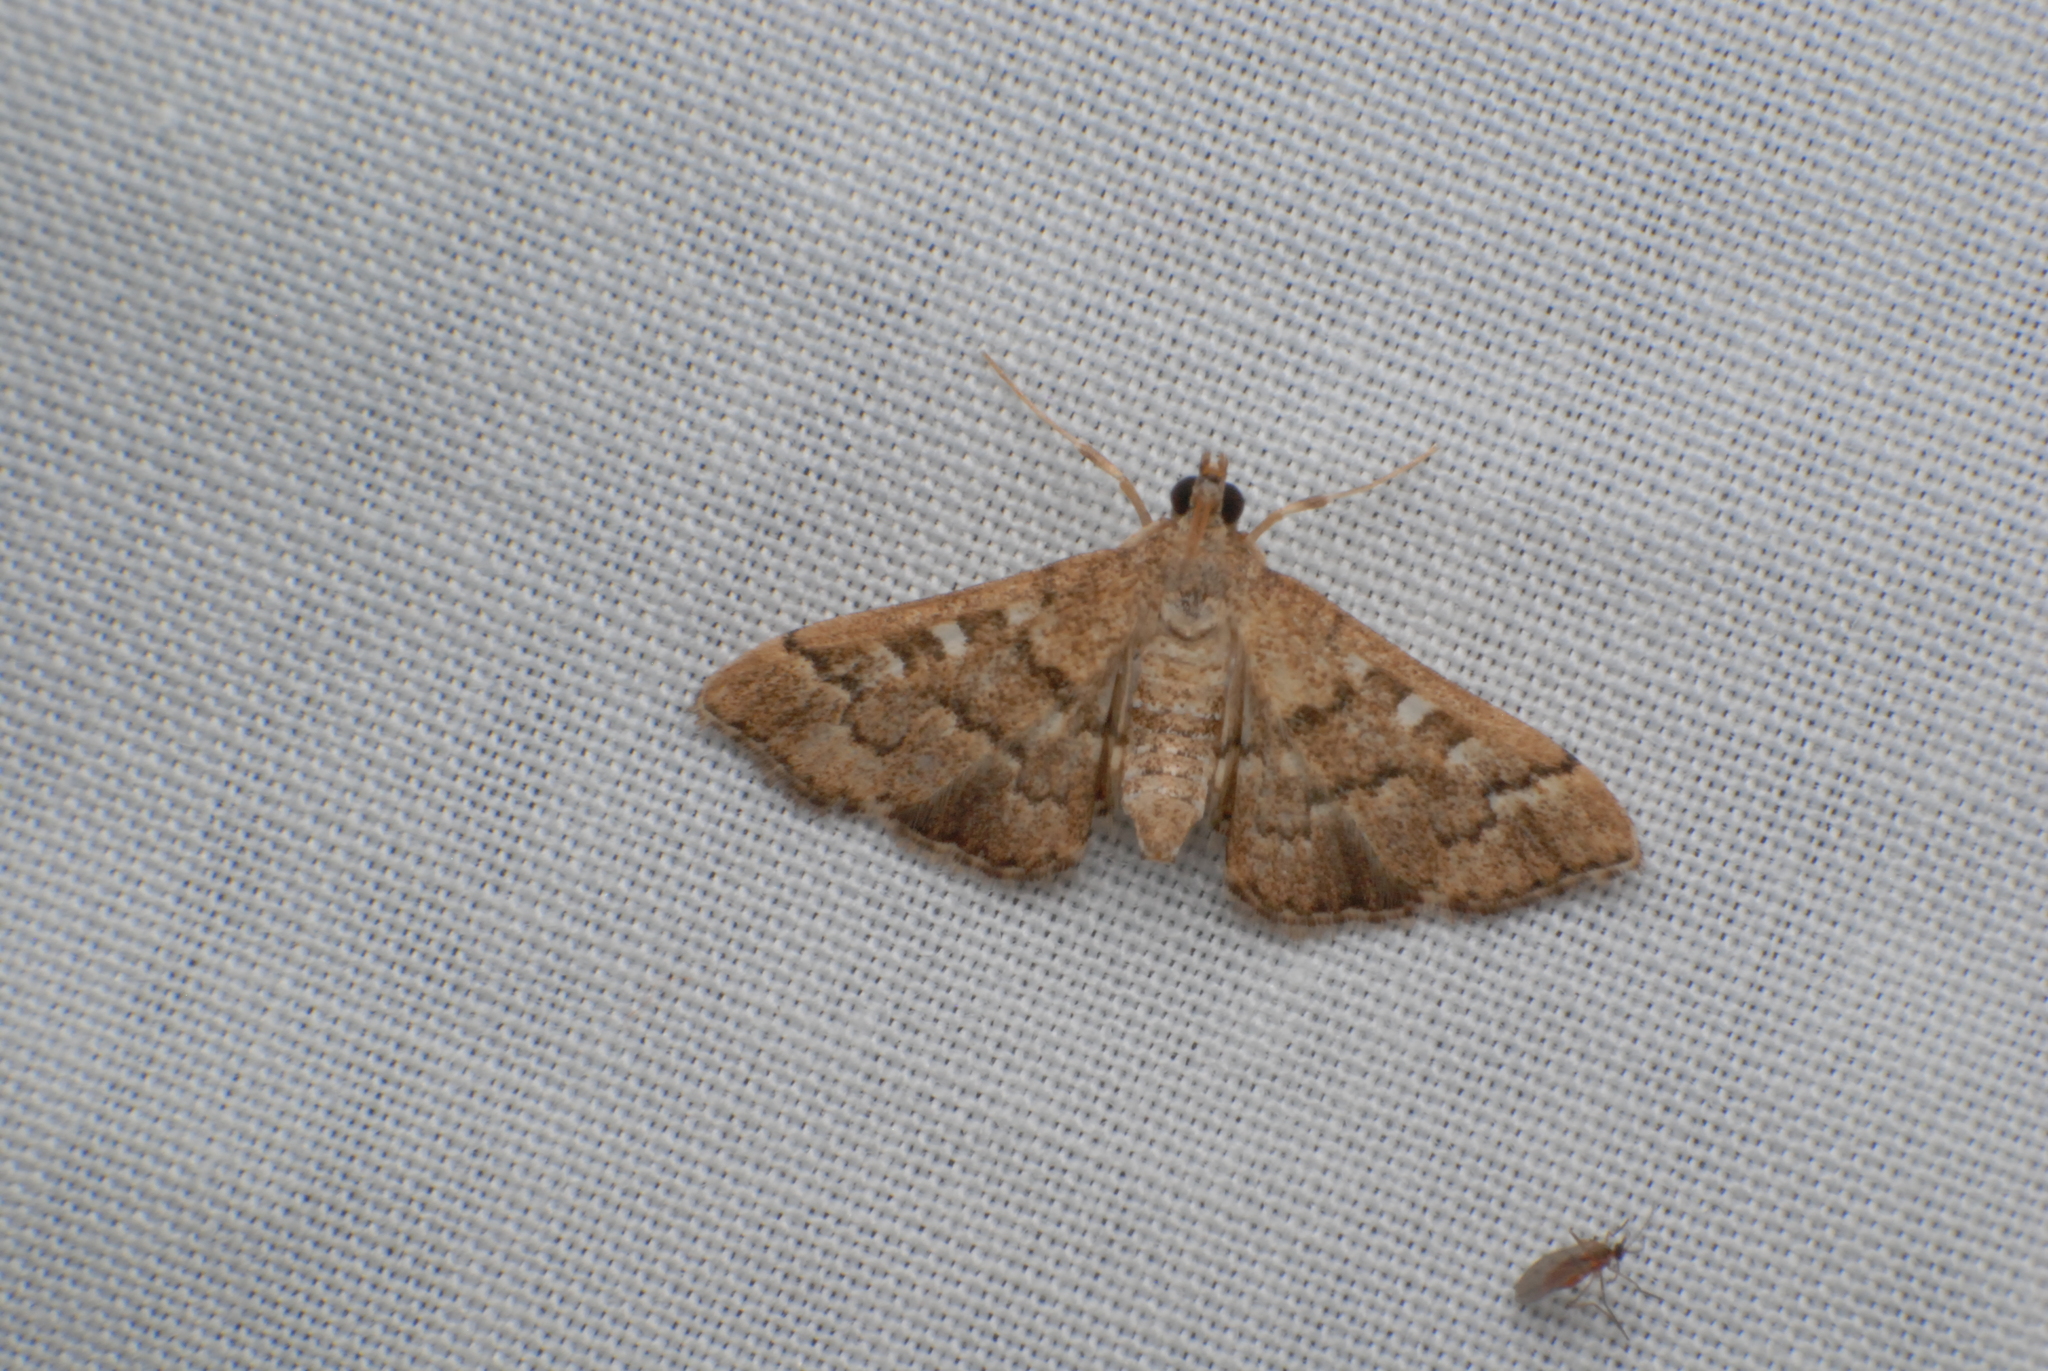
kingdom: Animalia
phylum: Arthropoda
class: Insecta
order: Lepidoptera
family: Crambidae
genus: Nacoleia
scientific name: Nacoleia rhoeoalis
